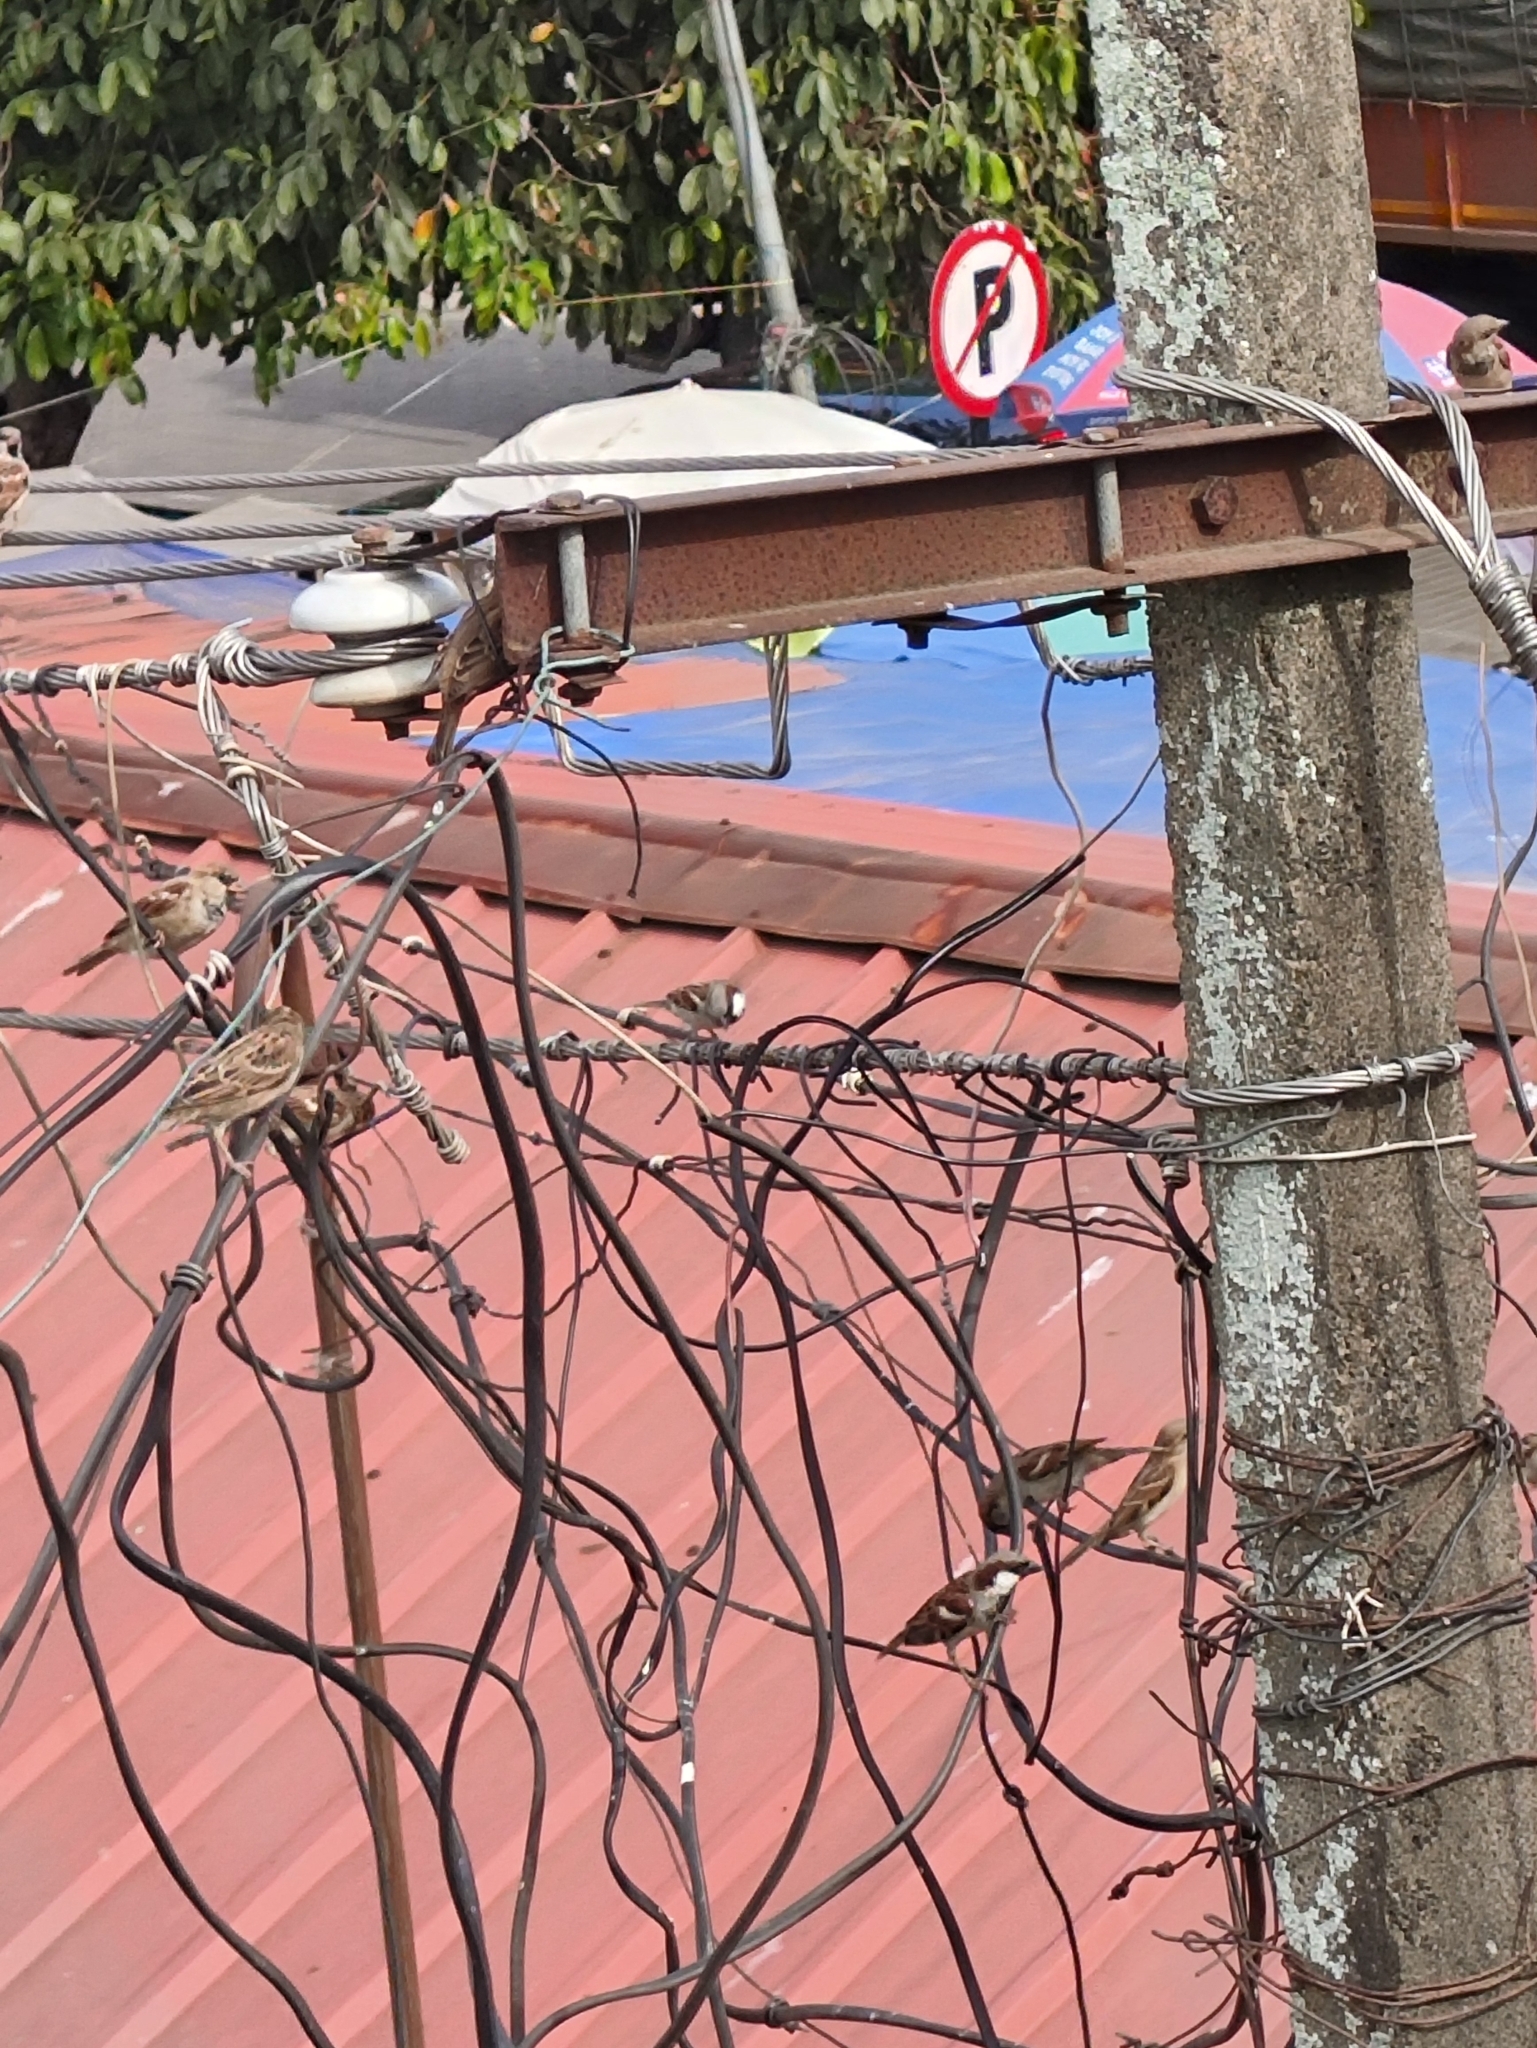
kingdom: Animalia
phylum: Chordata
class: Aves
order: Passeriformes
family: Passeridae
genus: Passer
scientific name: Passer domesticus
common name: House sparrow
